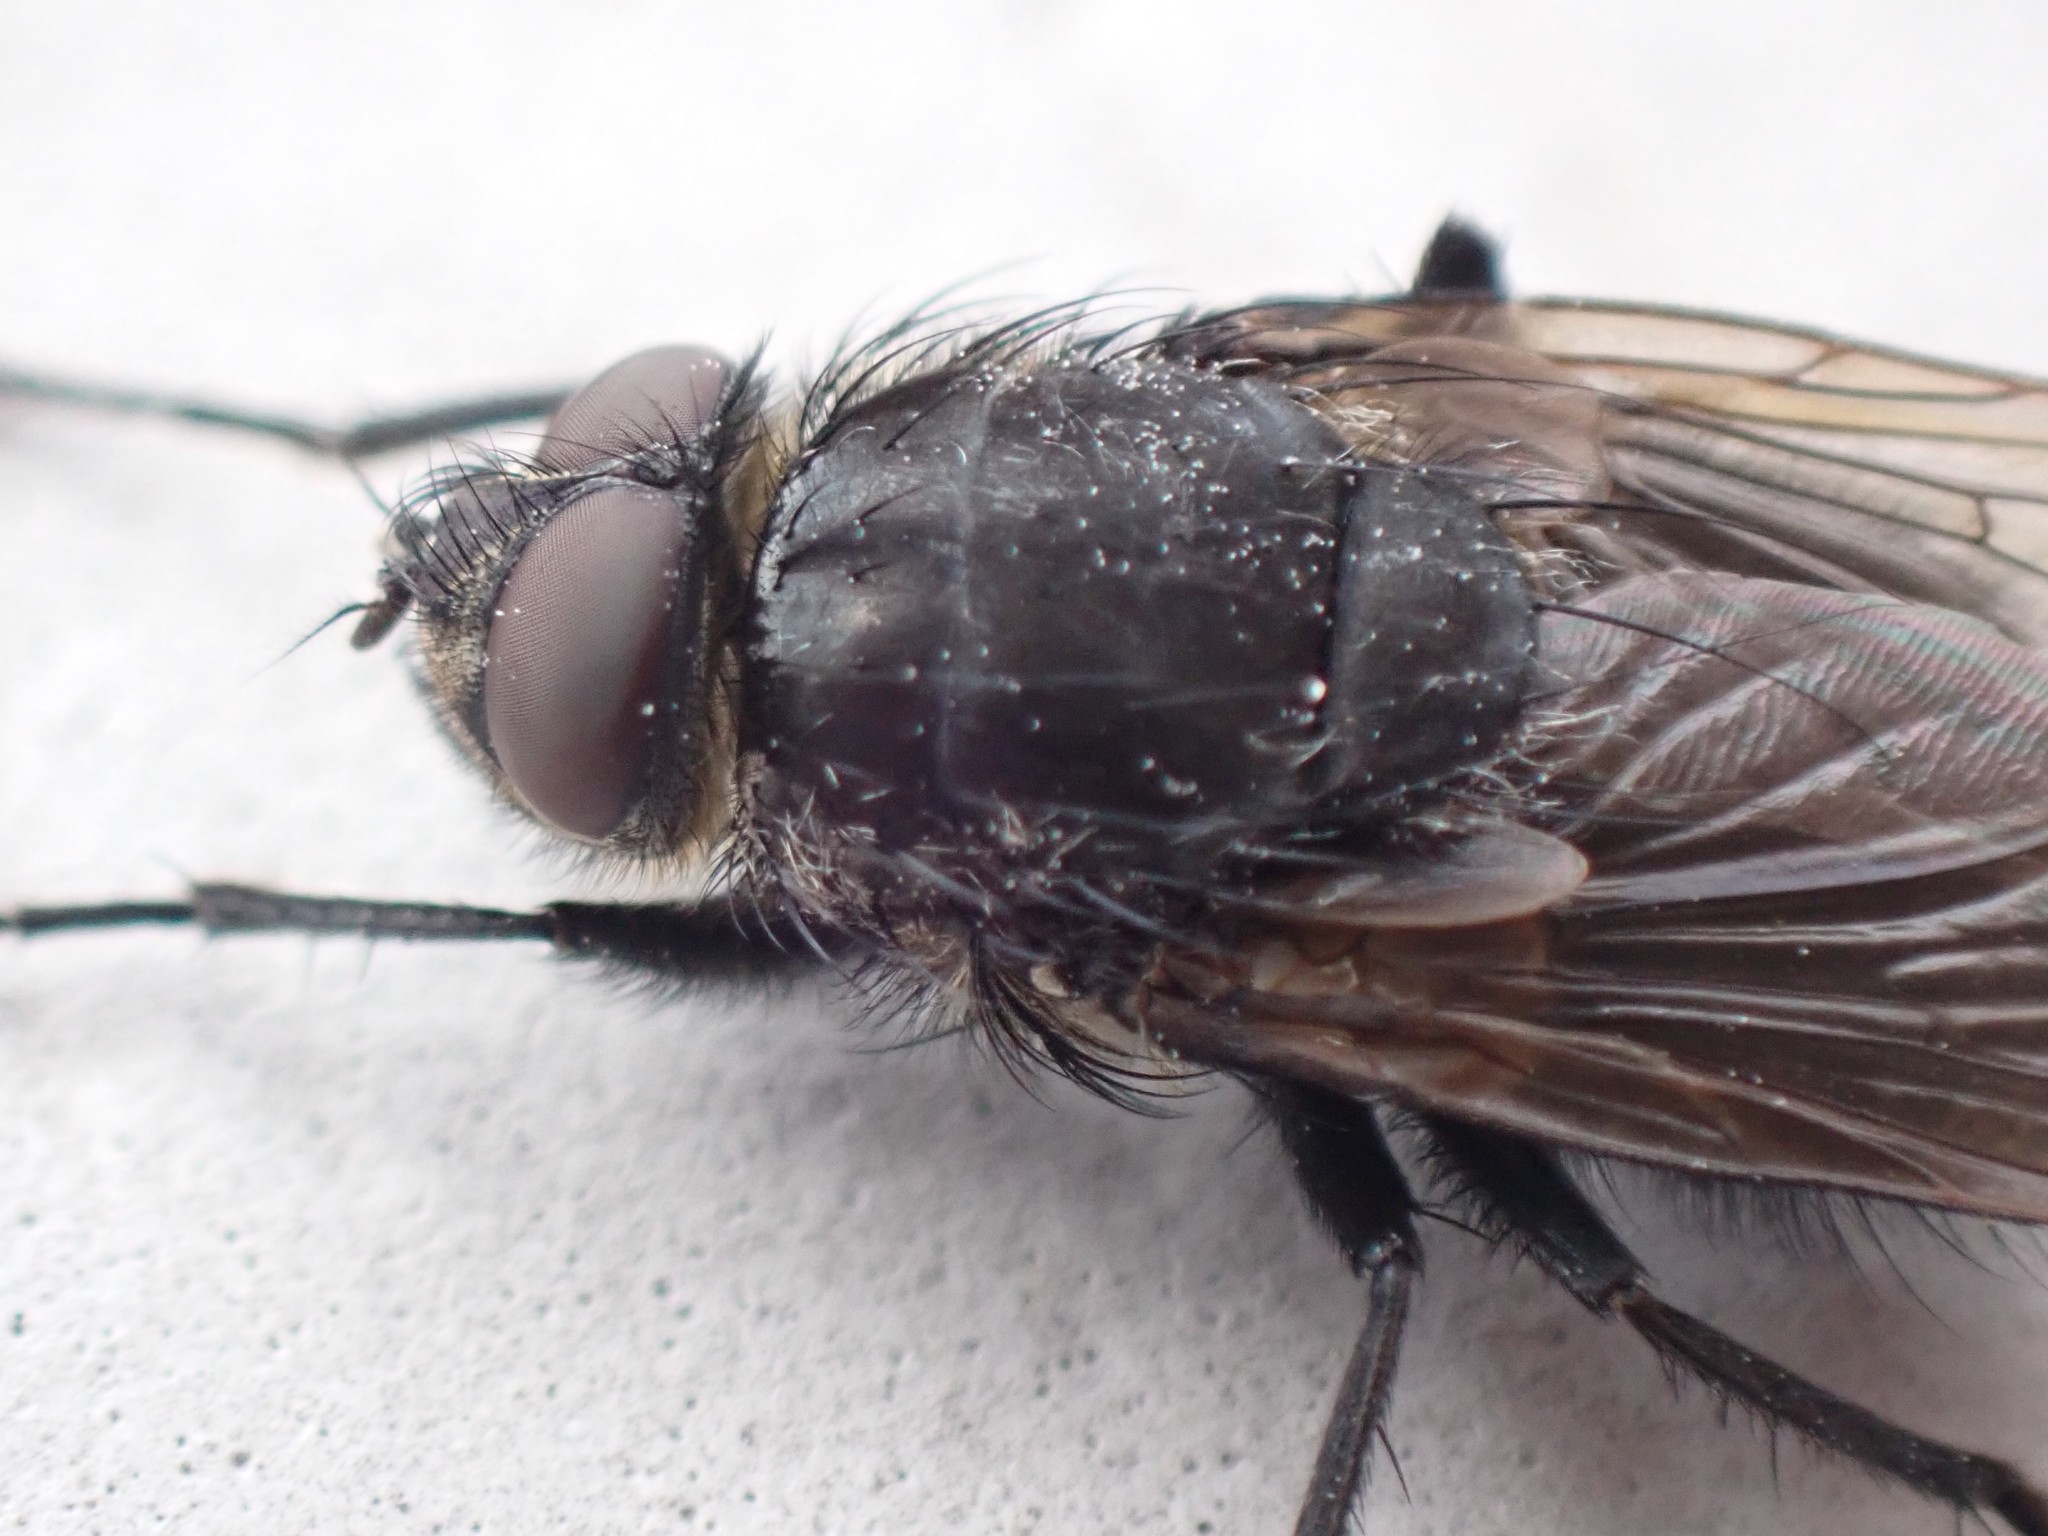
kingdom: Animalia
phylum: Arthropoda
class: Insecta
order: Diptera
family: Polleniidae
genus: Pollenia
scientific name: Pollenia vagabunda
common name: Vagabund cluster fly
